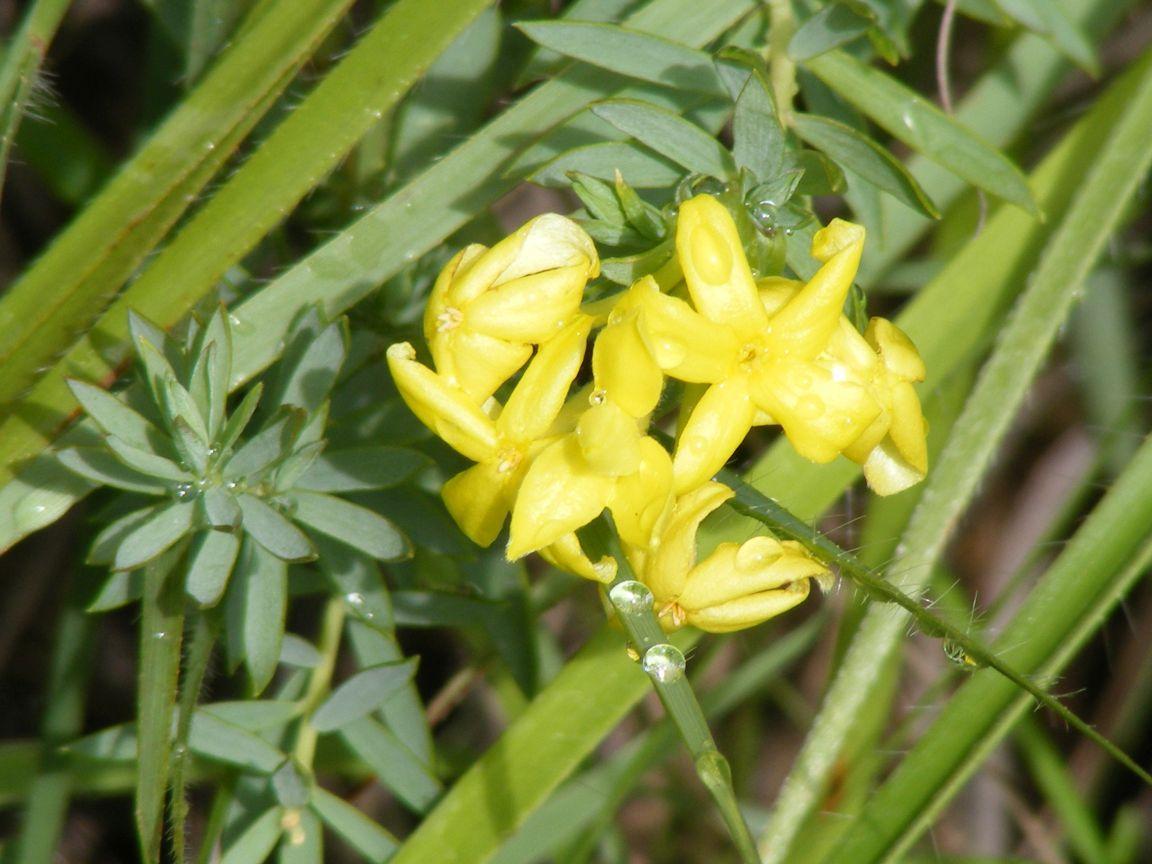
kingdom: Plantae
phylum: Tracheophyta
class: Magnoliopsida
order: Malvales
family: Thymelaeaceae
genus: Gnidia
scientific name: Gnidia caffra
